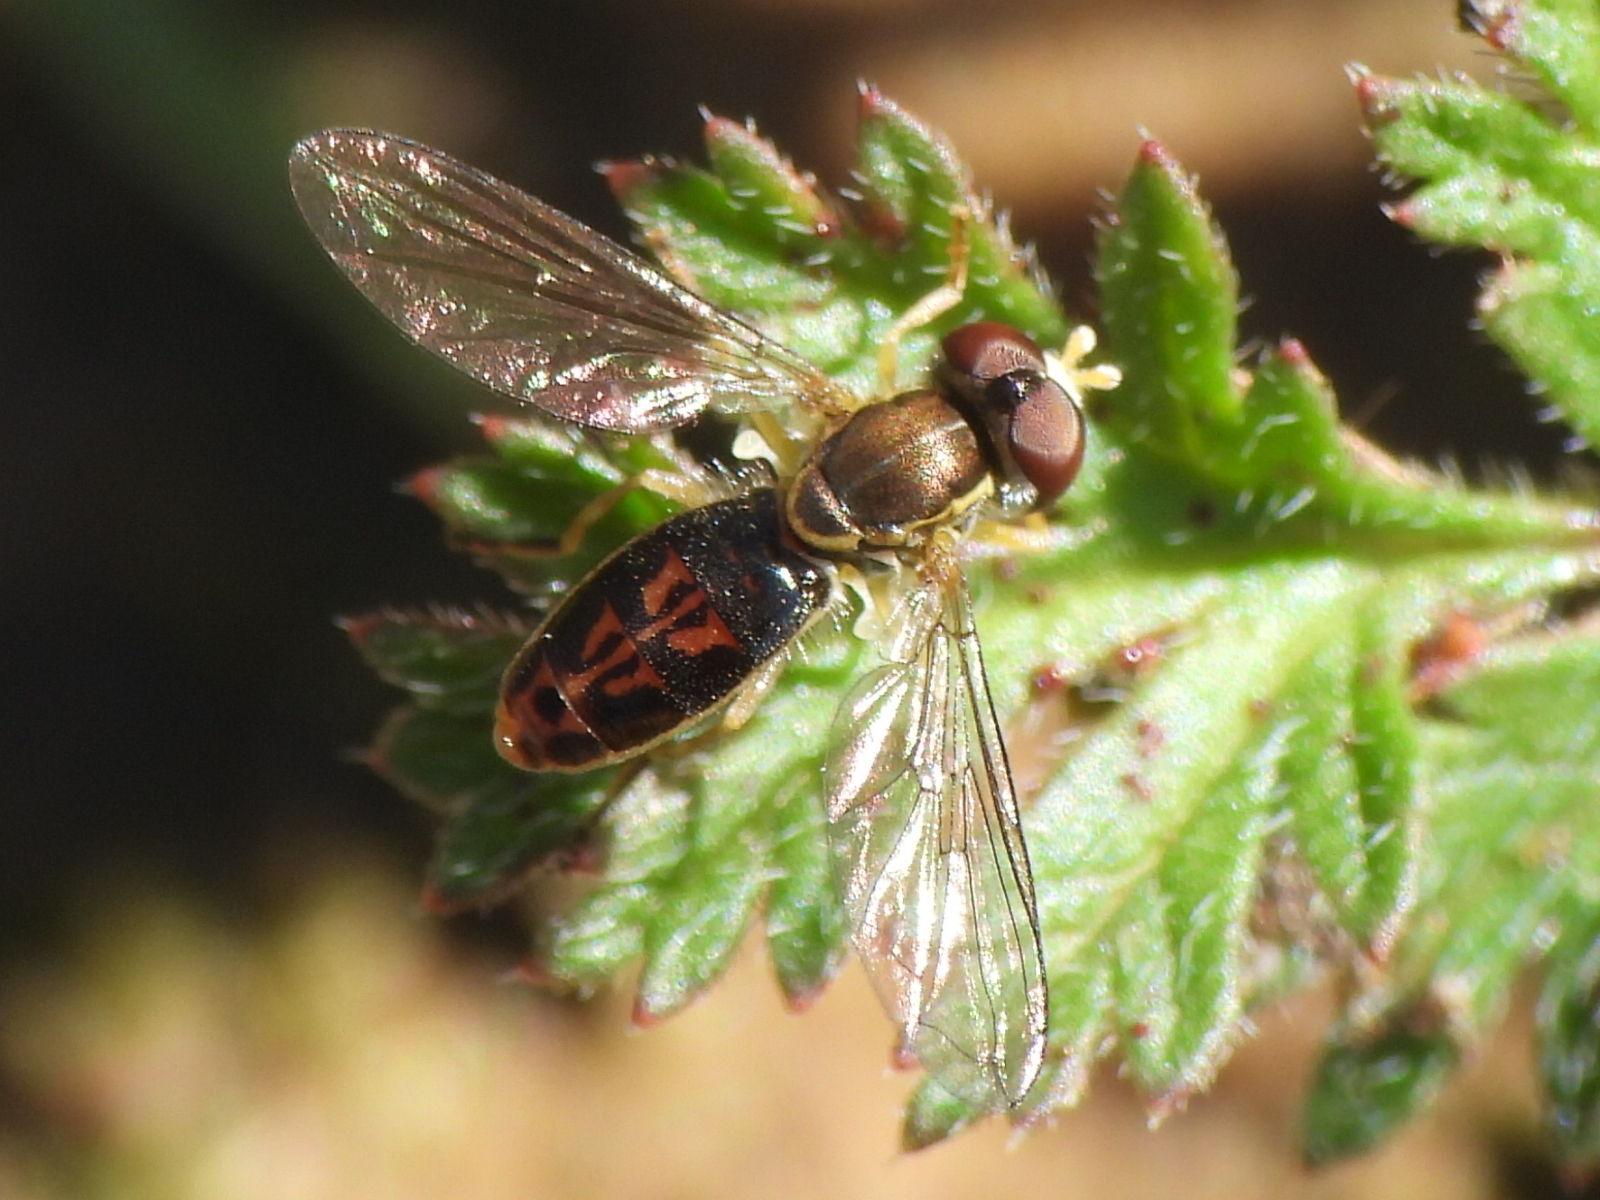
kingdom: Animalia
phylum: Arthropoda
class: Insecta
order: Diptera
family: Syrphidae
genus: Toxomerus
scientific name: Toxomerus marginatus
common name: Syrphid fly
